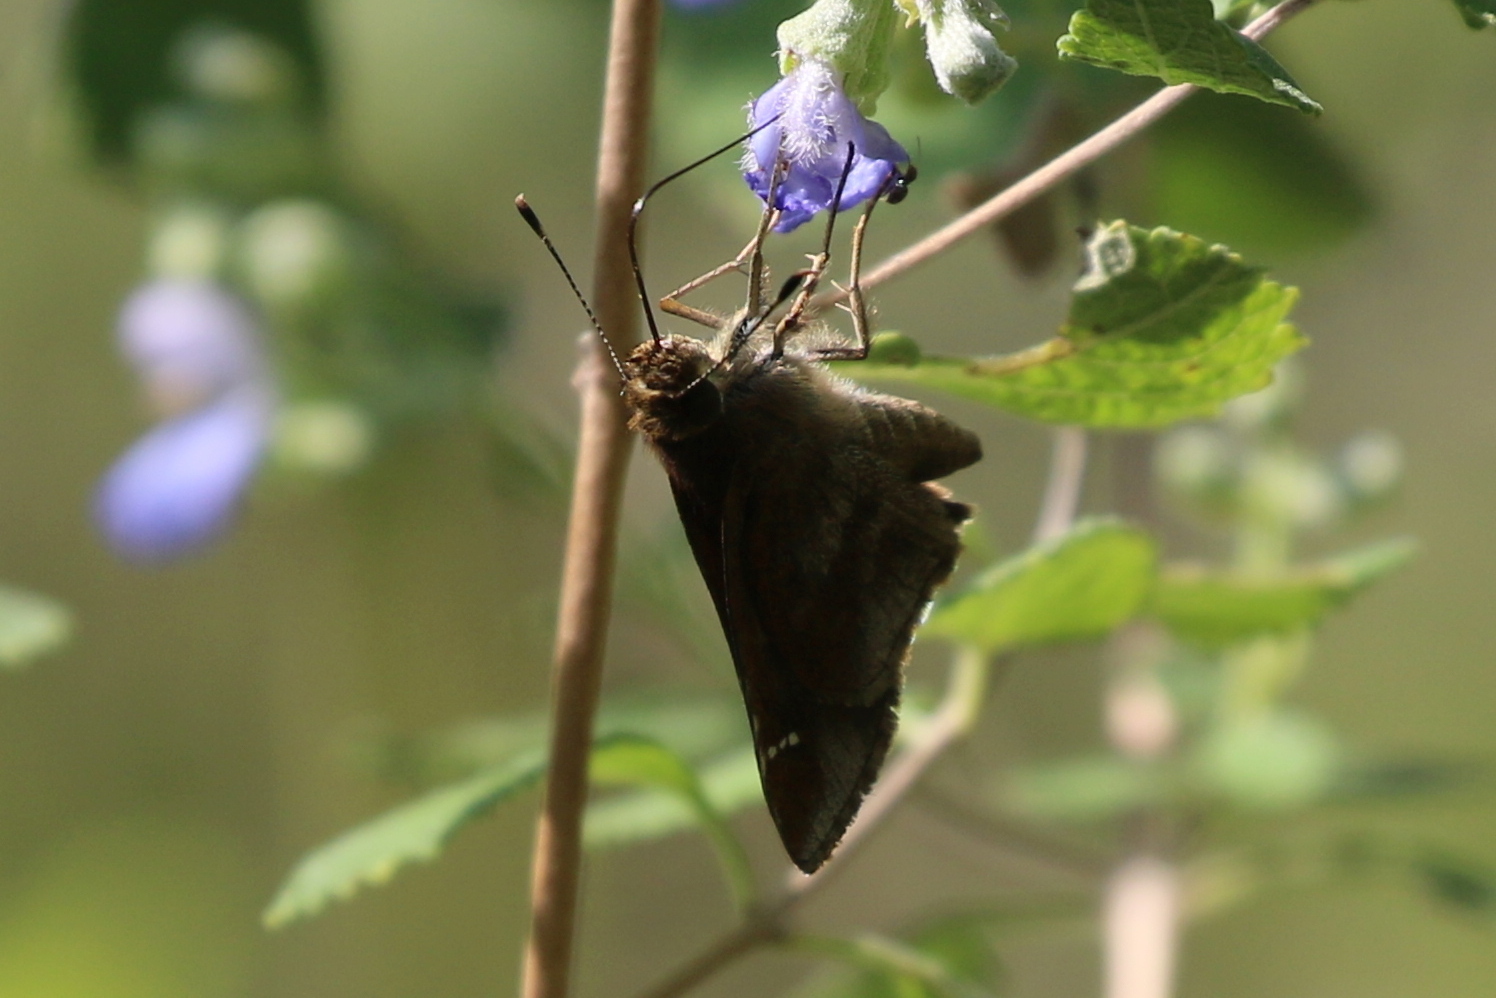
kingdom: Animalia
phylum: Arthropoda
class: Insecta
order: Lepidoptera
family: Hesperiidae
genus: Lerema
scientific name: Lerema accius
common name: Clouded skipper
